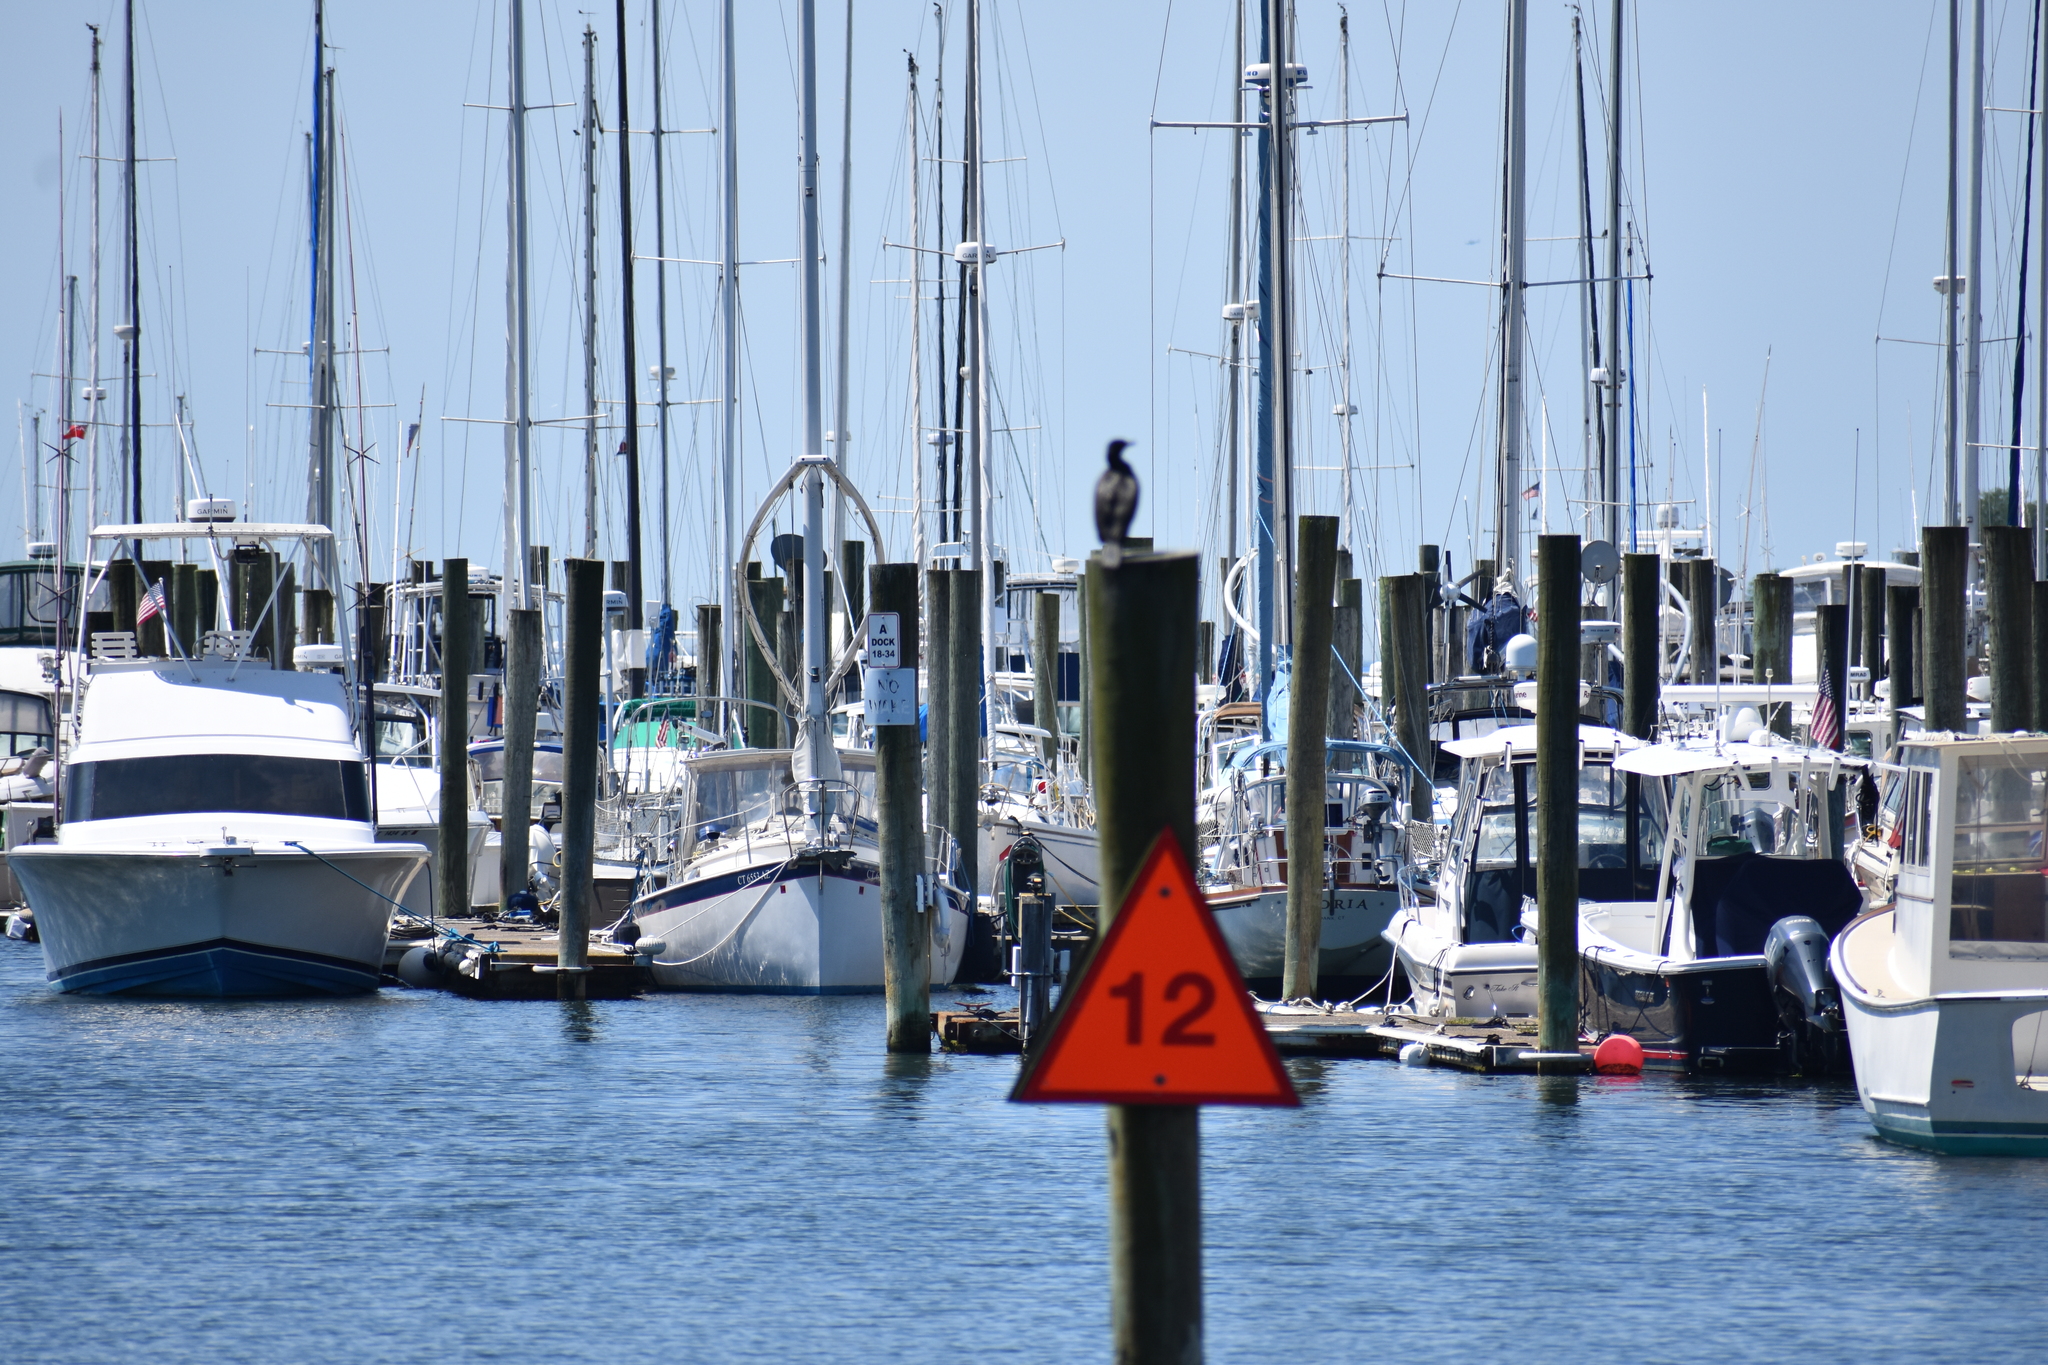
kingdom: Animalia
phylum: Chordata
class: Aves
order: Suliformes
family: Phalacrocoracidae
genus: Phalacrocorax
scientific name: Phalacrocorax auritus
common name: Double-crested cormorant
